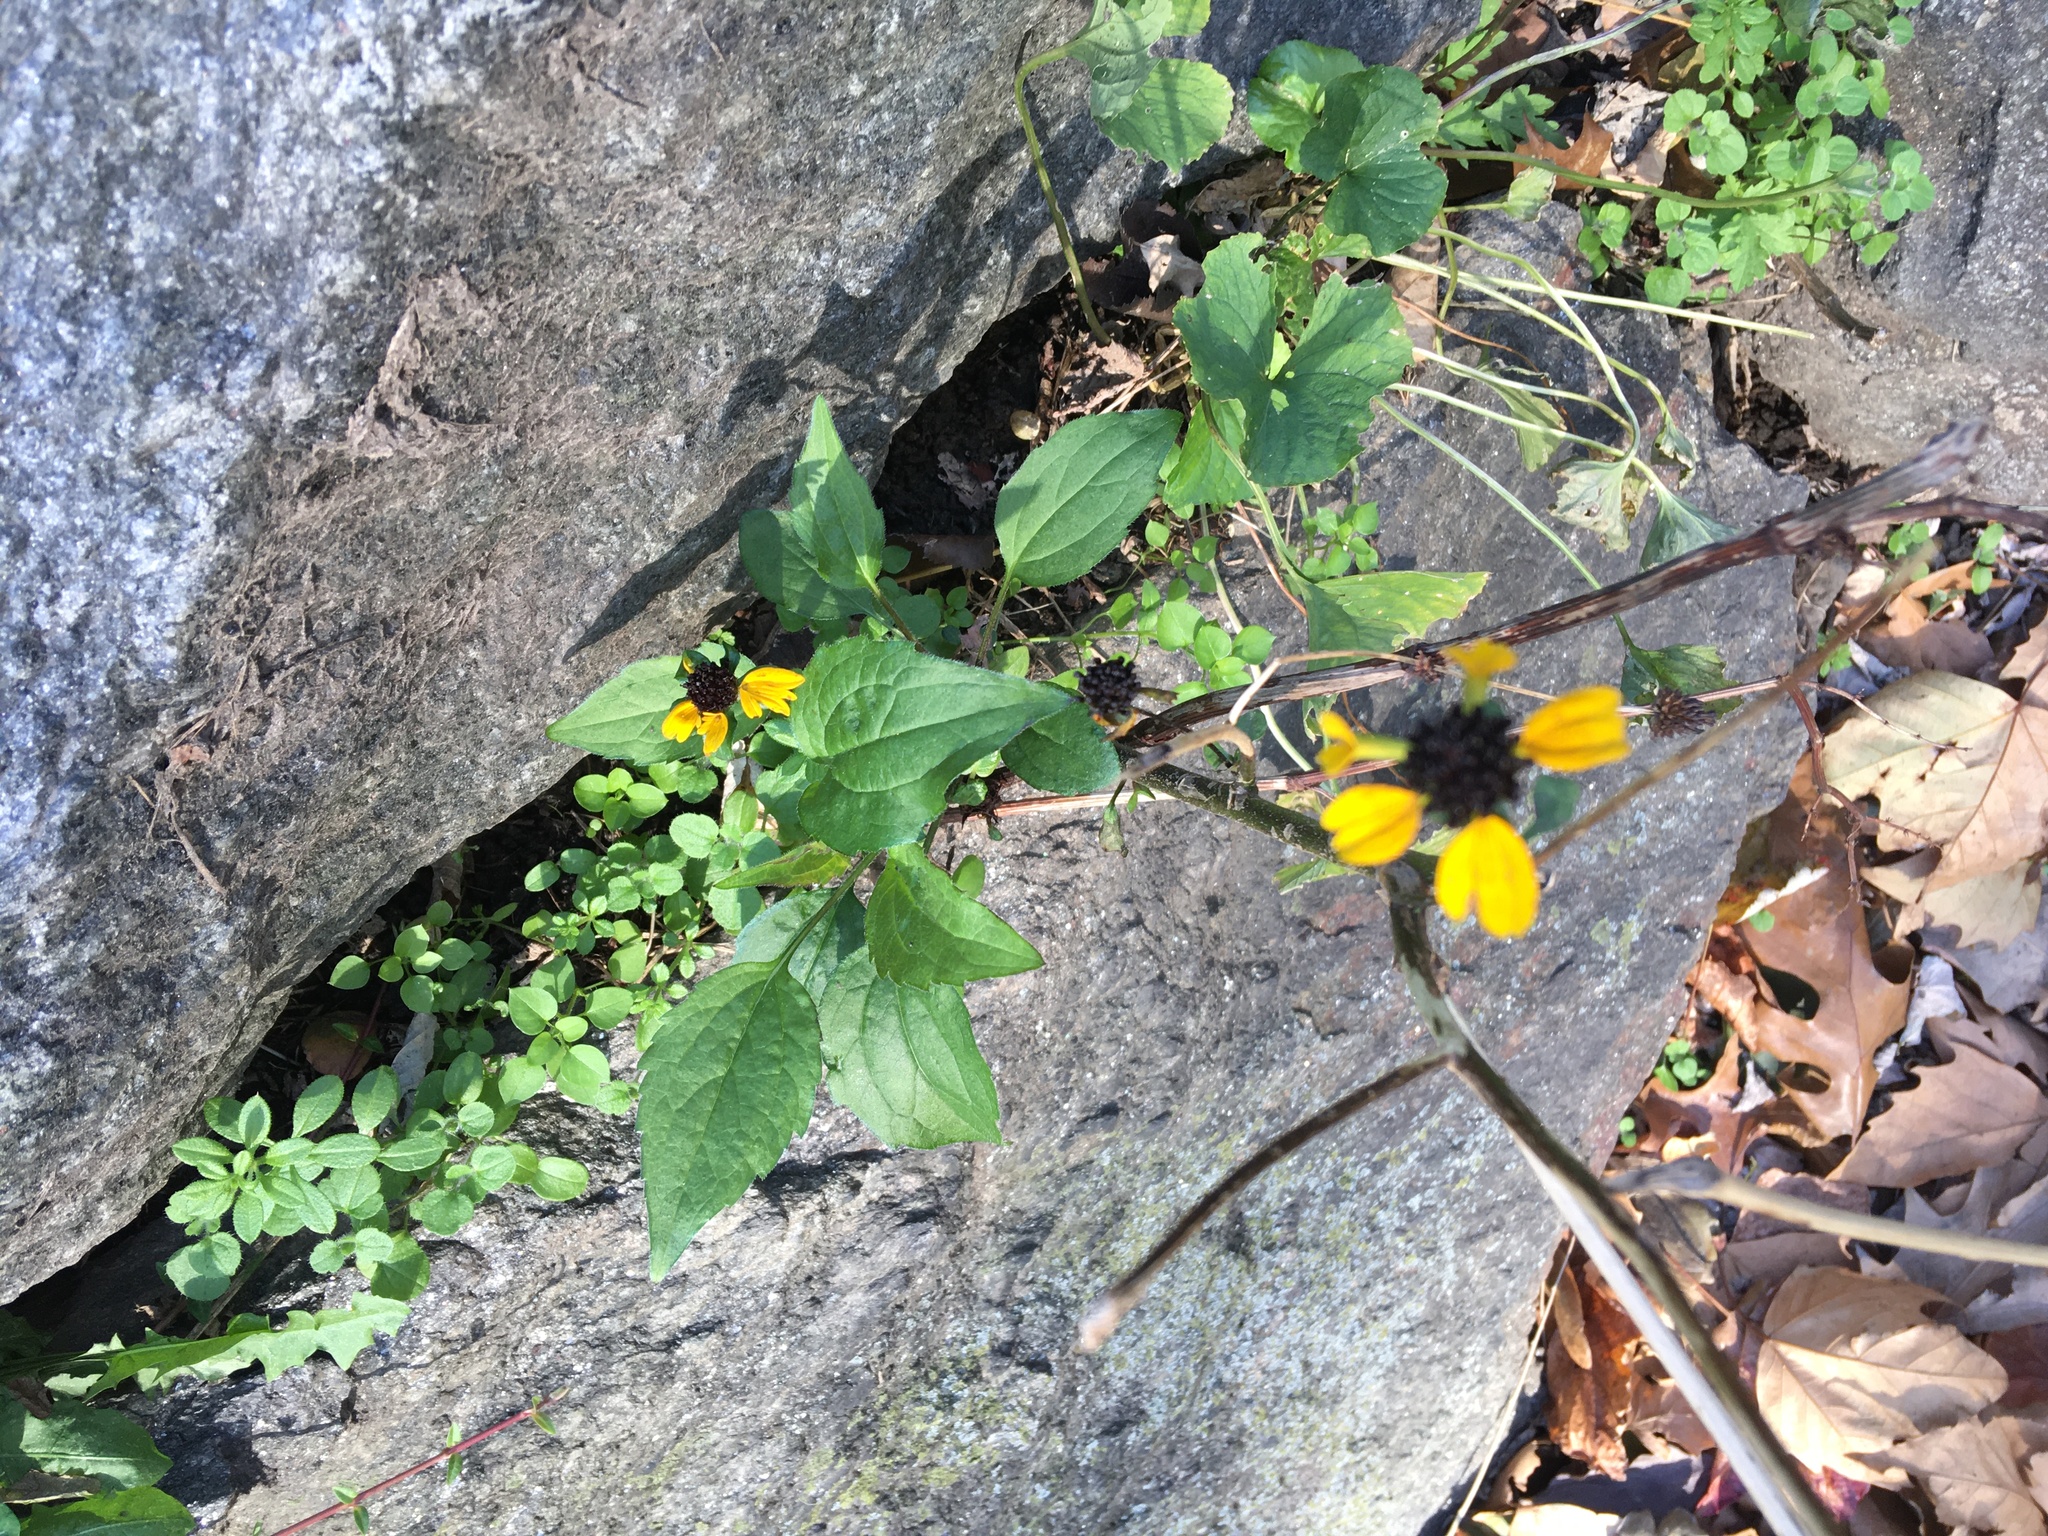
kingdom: Plantae
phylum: Tracheophyta
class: Magnoliopsida
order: Asterales
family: Asteraceae
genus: Rudbeckia
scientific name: Rudbeckia triloba
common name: Thin-leaved coneflower
